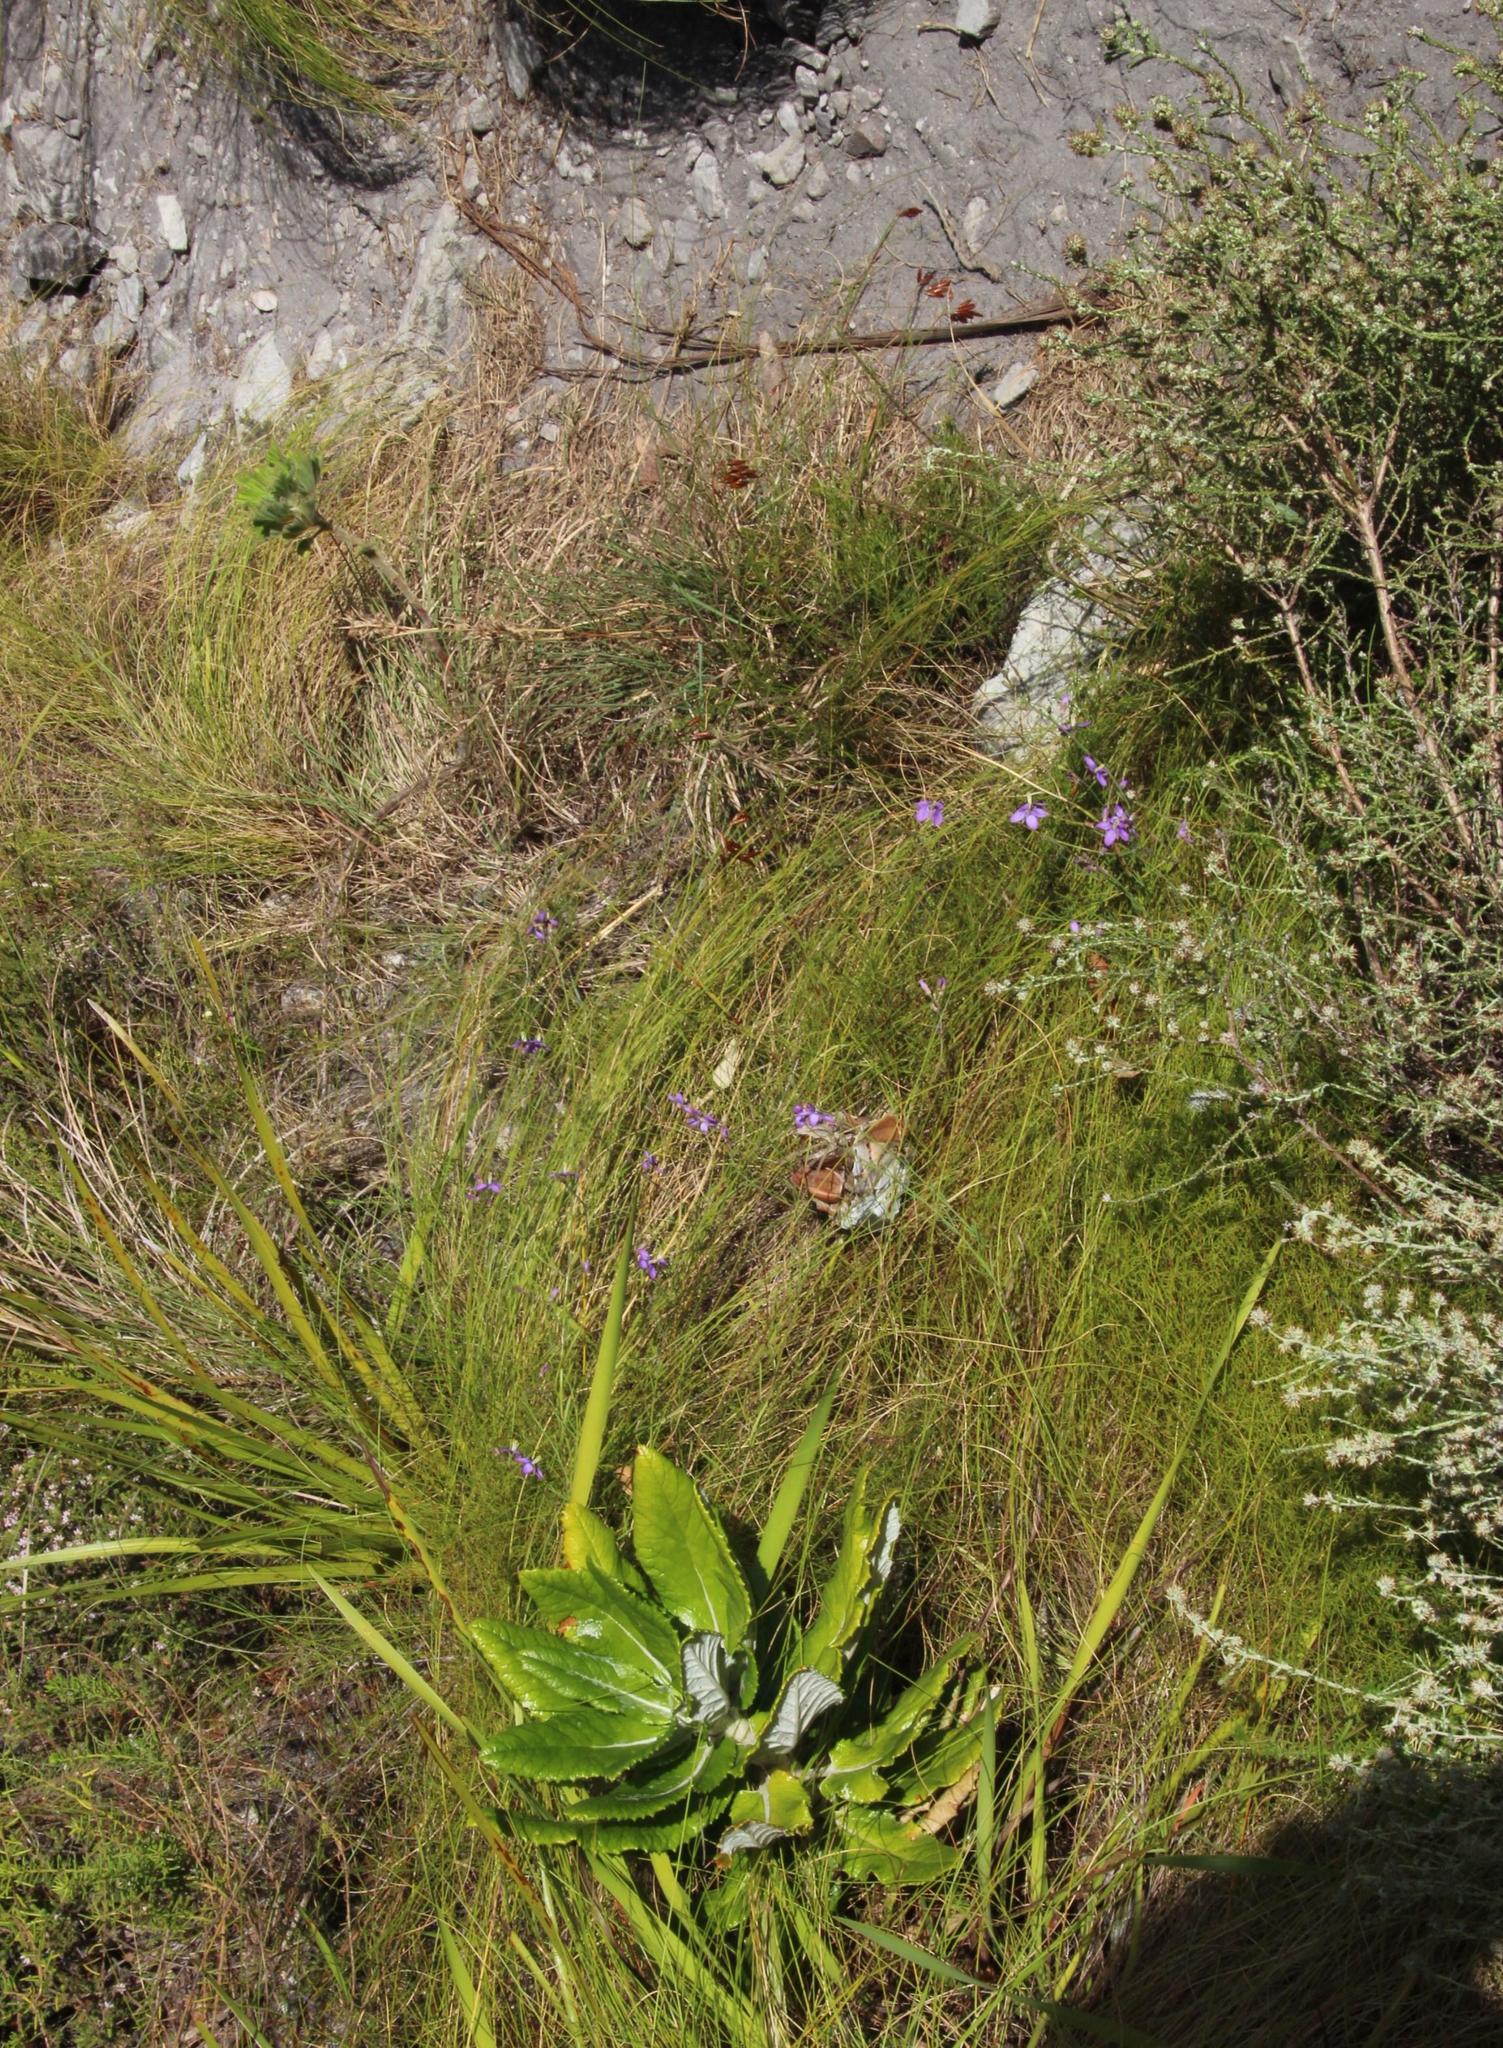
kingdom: Plantae
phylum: Tracheophyta
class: Magnoliopsida
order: Brassicales
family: Brassicaceae
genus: Heliophila
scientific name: Heliophila linearis
